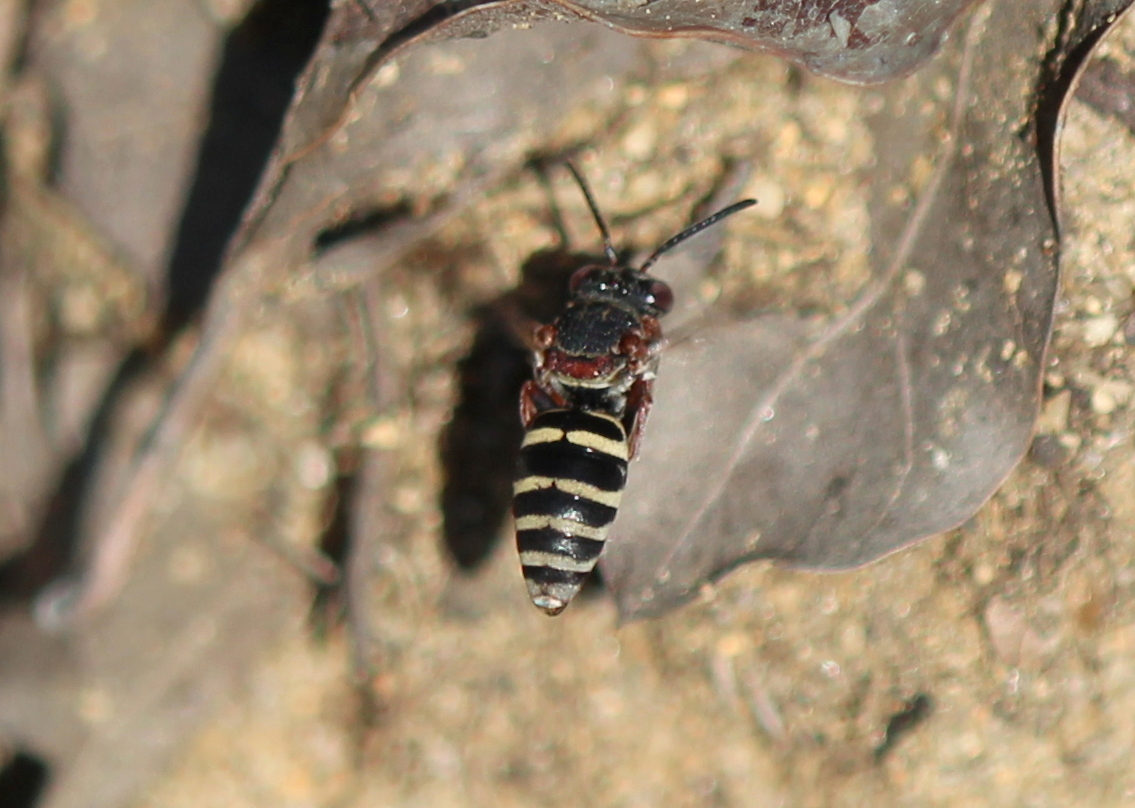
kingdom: Animalia
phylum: Arthropoda
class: Insecta
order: Hymenoptera
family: Apidae
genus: Epeolus
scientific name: Epeolus scutellaris
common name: Notch-backed cellophane-cuckoo bee
